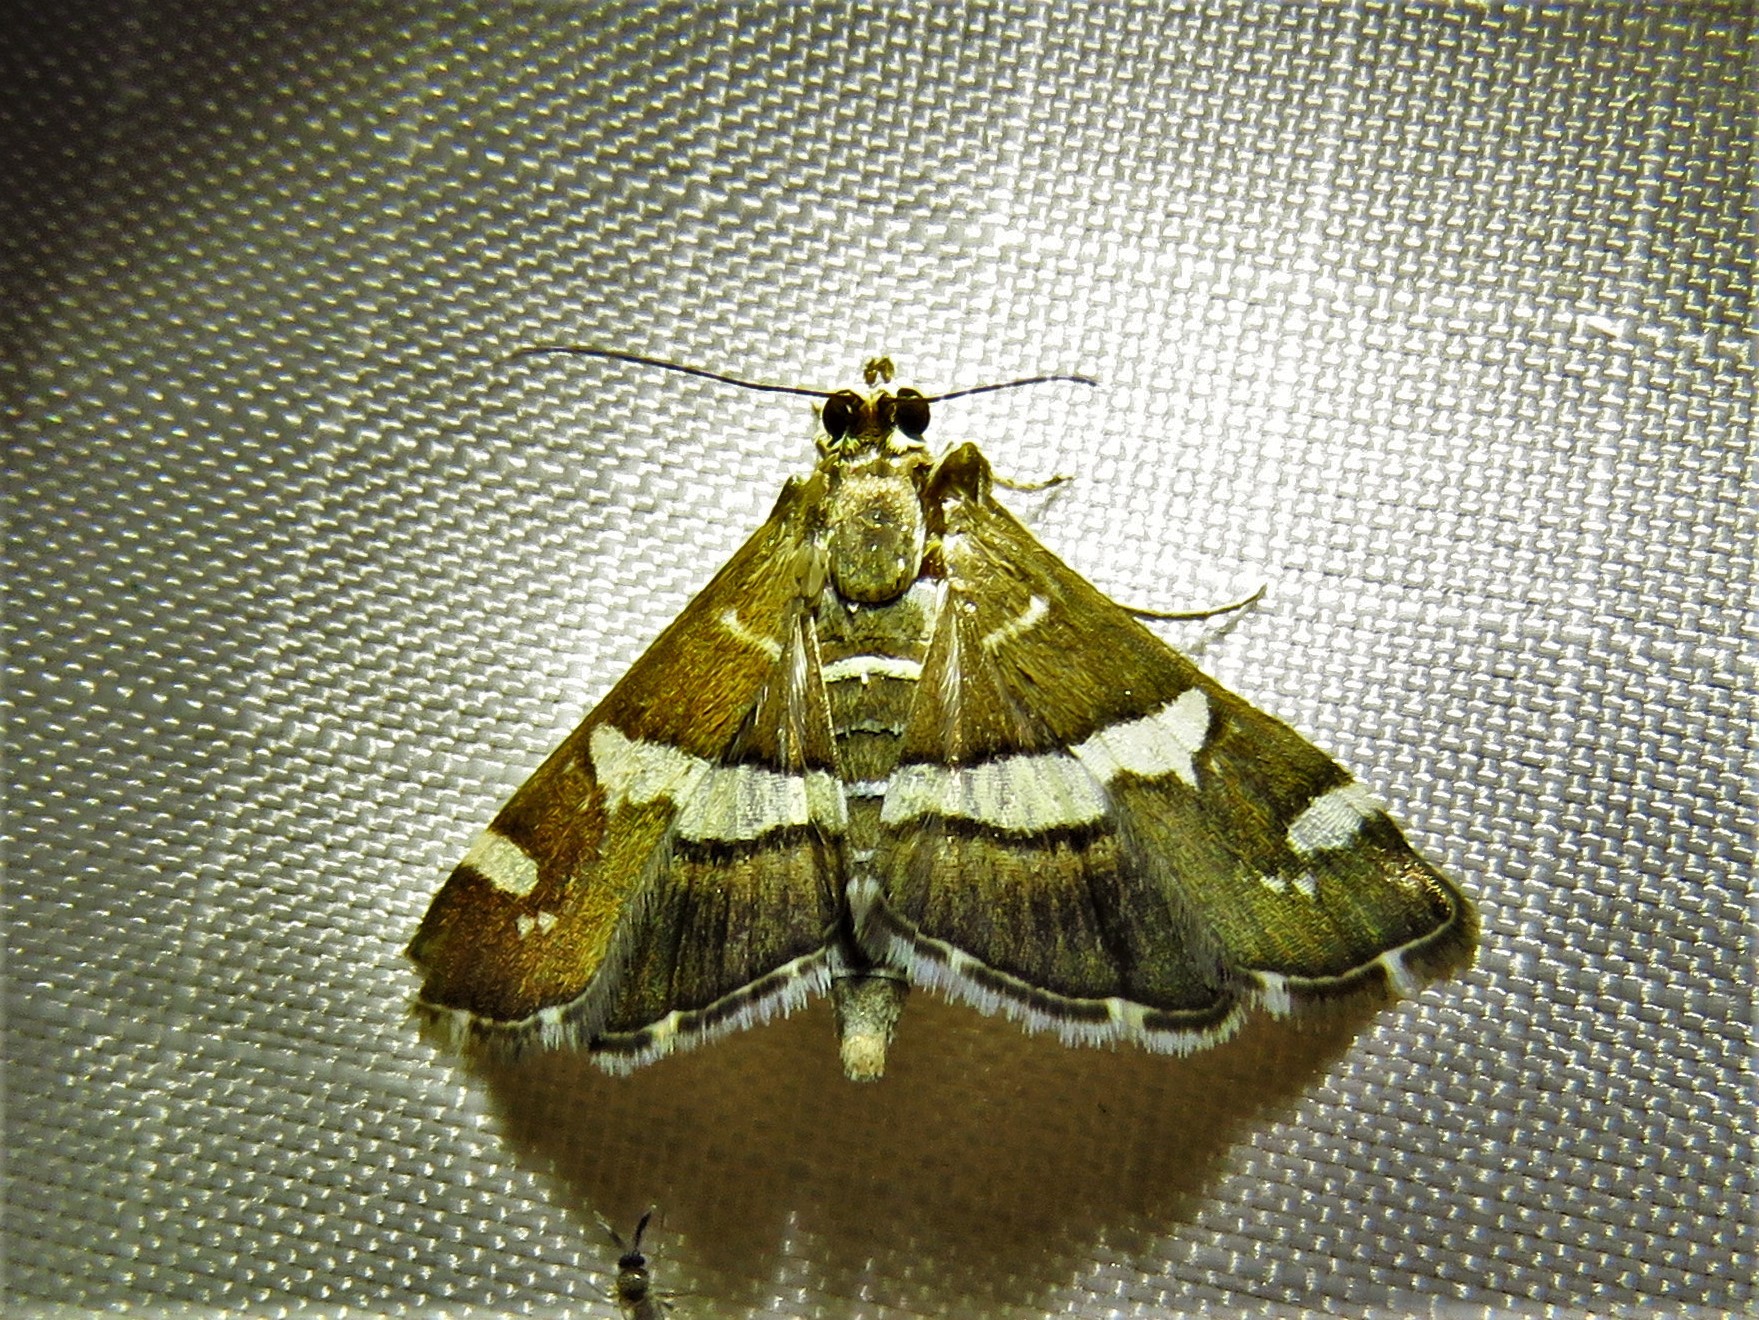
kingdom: Animalia
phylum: Arthropoda
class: Insecta
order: Lepidoptera
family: Crambidae
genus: Spoladea
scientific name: Spoladea recurvalis
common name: Beet webworm moth
